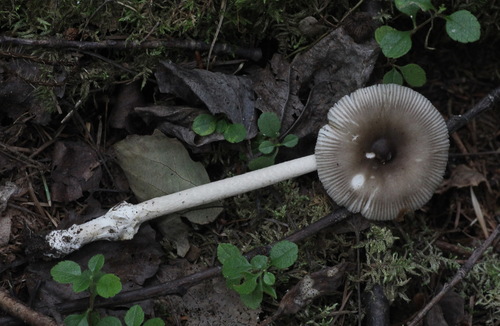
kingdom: Fungi
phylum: Basidiomycota
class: Agaricomycetes
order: Agaricales
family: Amanitaceae
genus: Amanita
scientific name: Amanita battarrae
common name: Banded amanita
